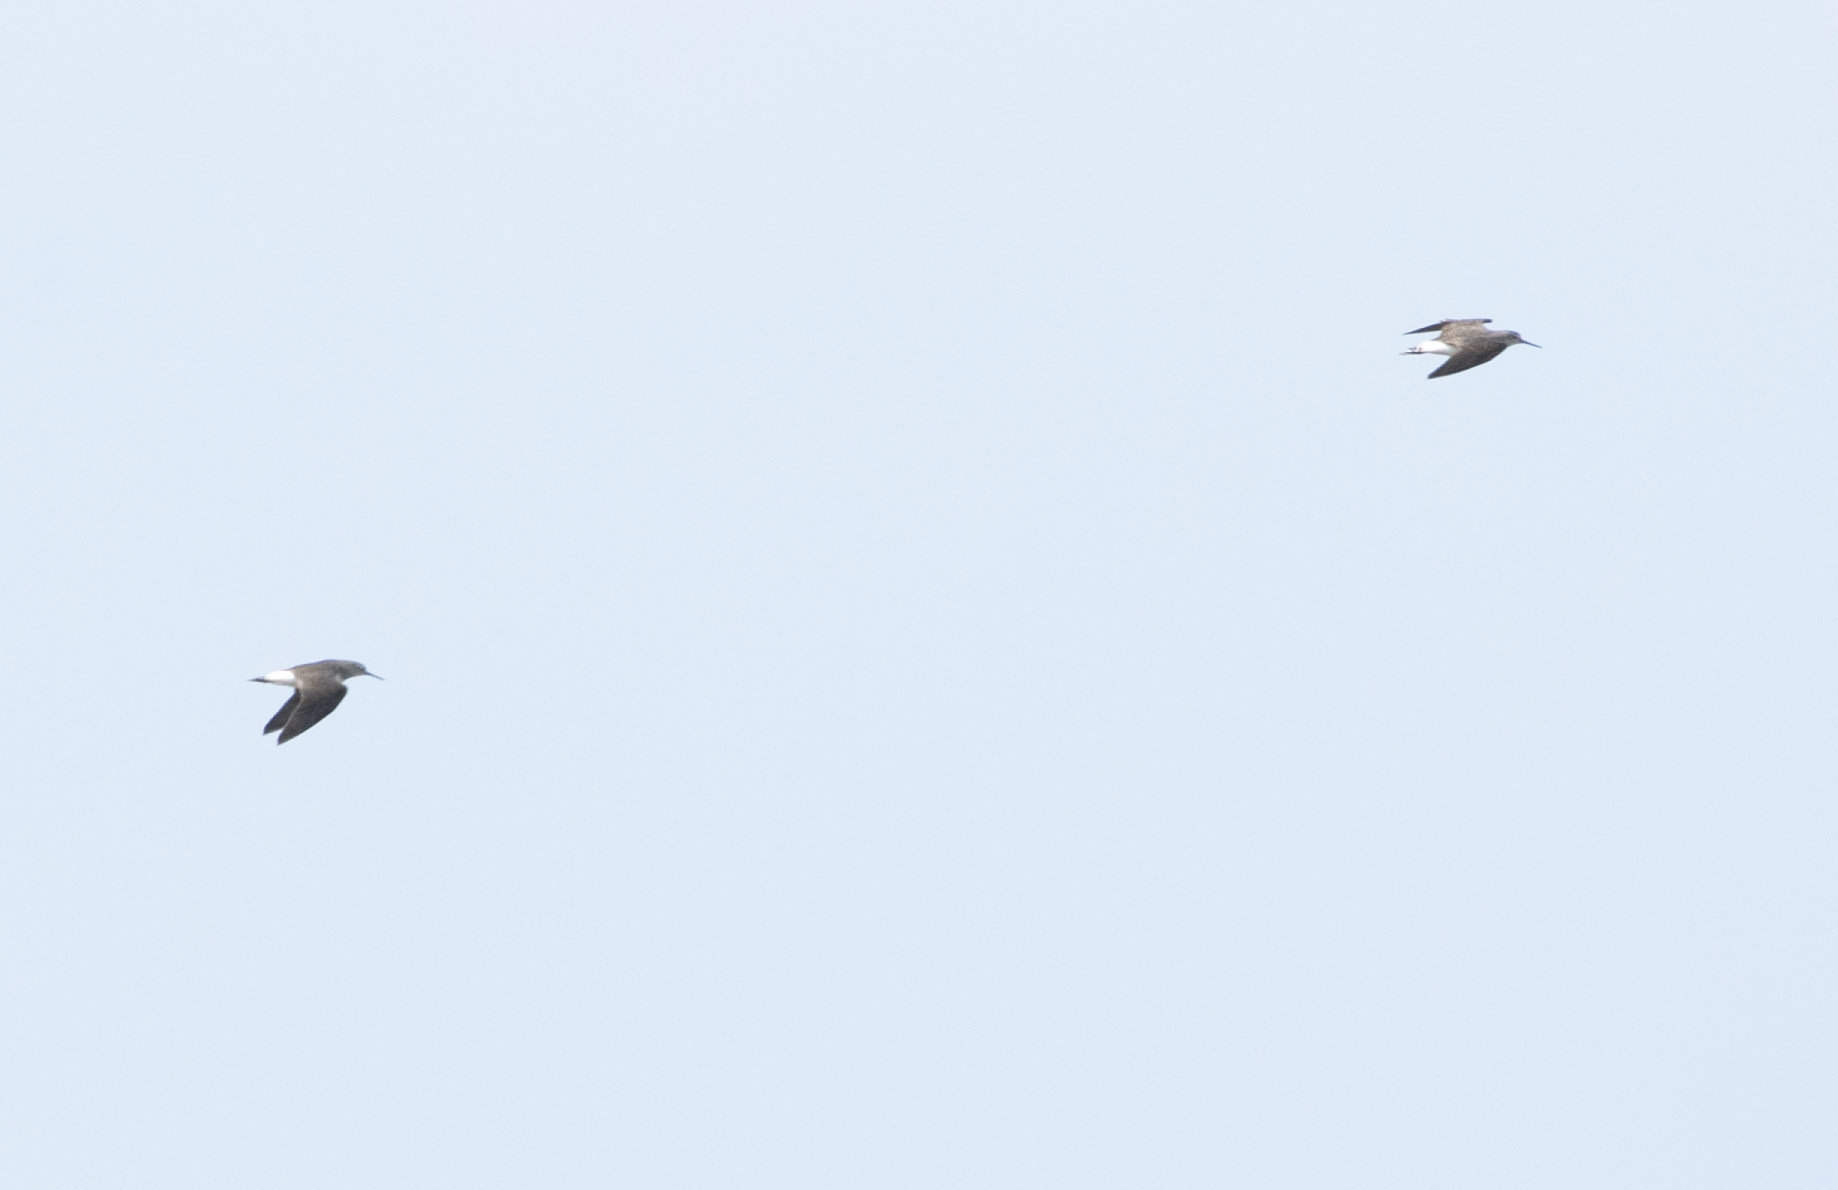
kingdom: Animalia
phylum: Chordata
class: Aves
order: Charadriiformes
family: Scolopacidae
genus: Tringa
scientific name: Tringa ochropus
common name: Green sandpiper
